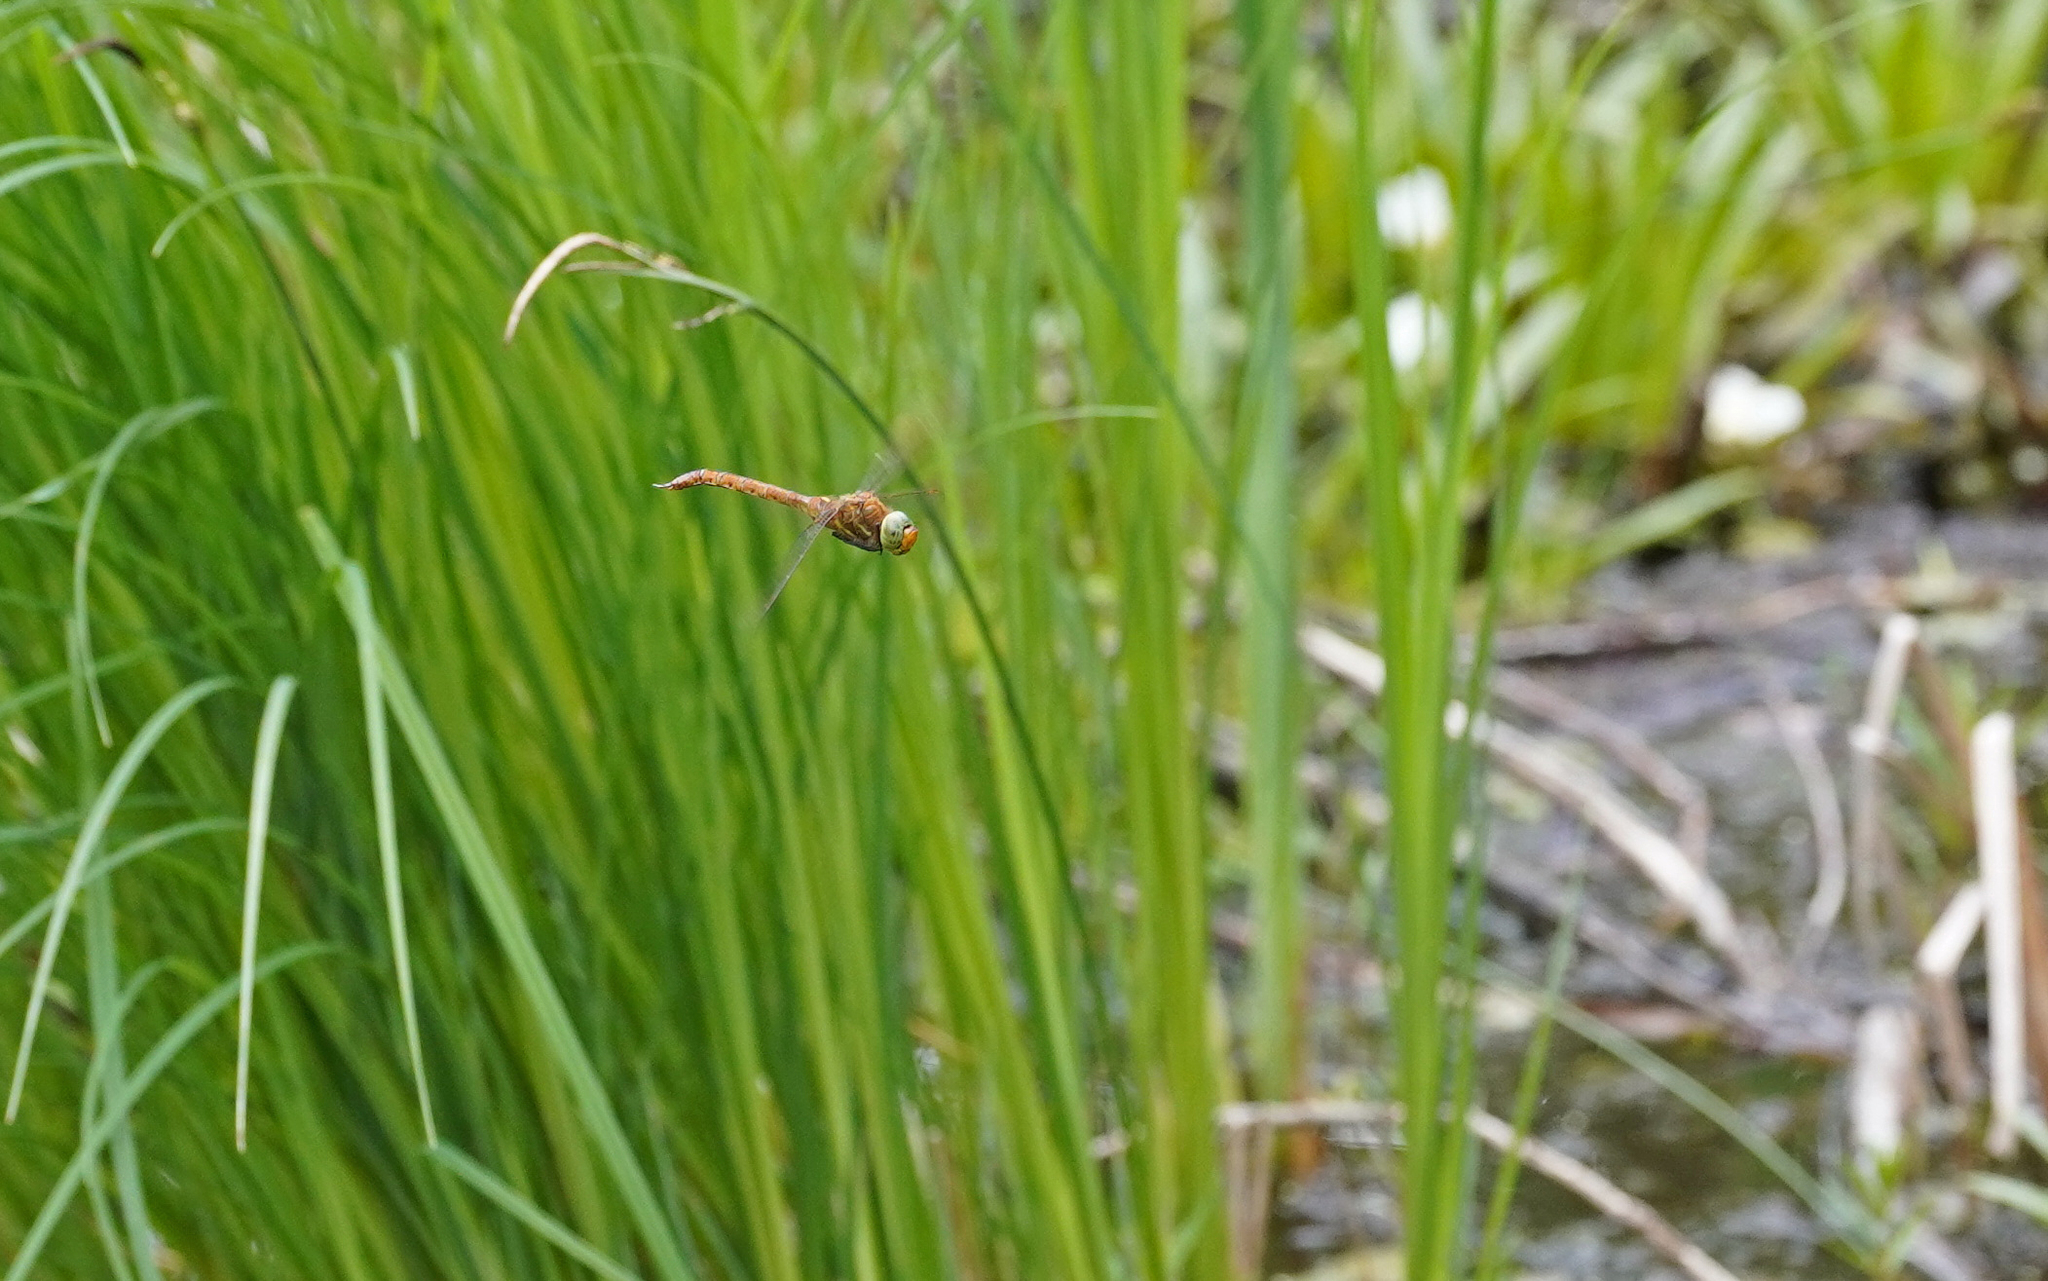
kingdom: Animalia
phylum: Arthropoda
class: Insecta
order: Odonata
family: Aeshnidae
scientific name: Aeshnidae
